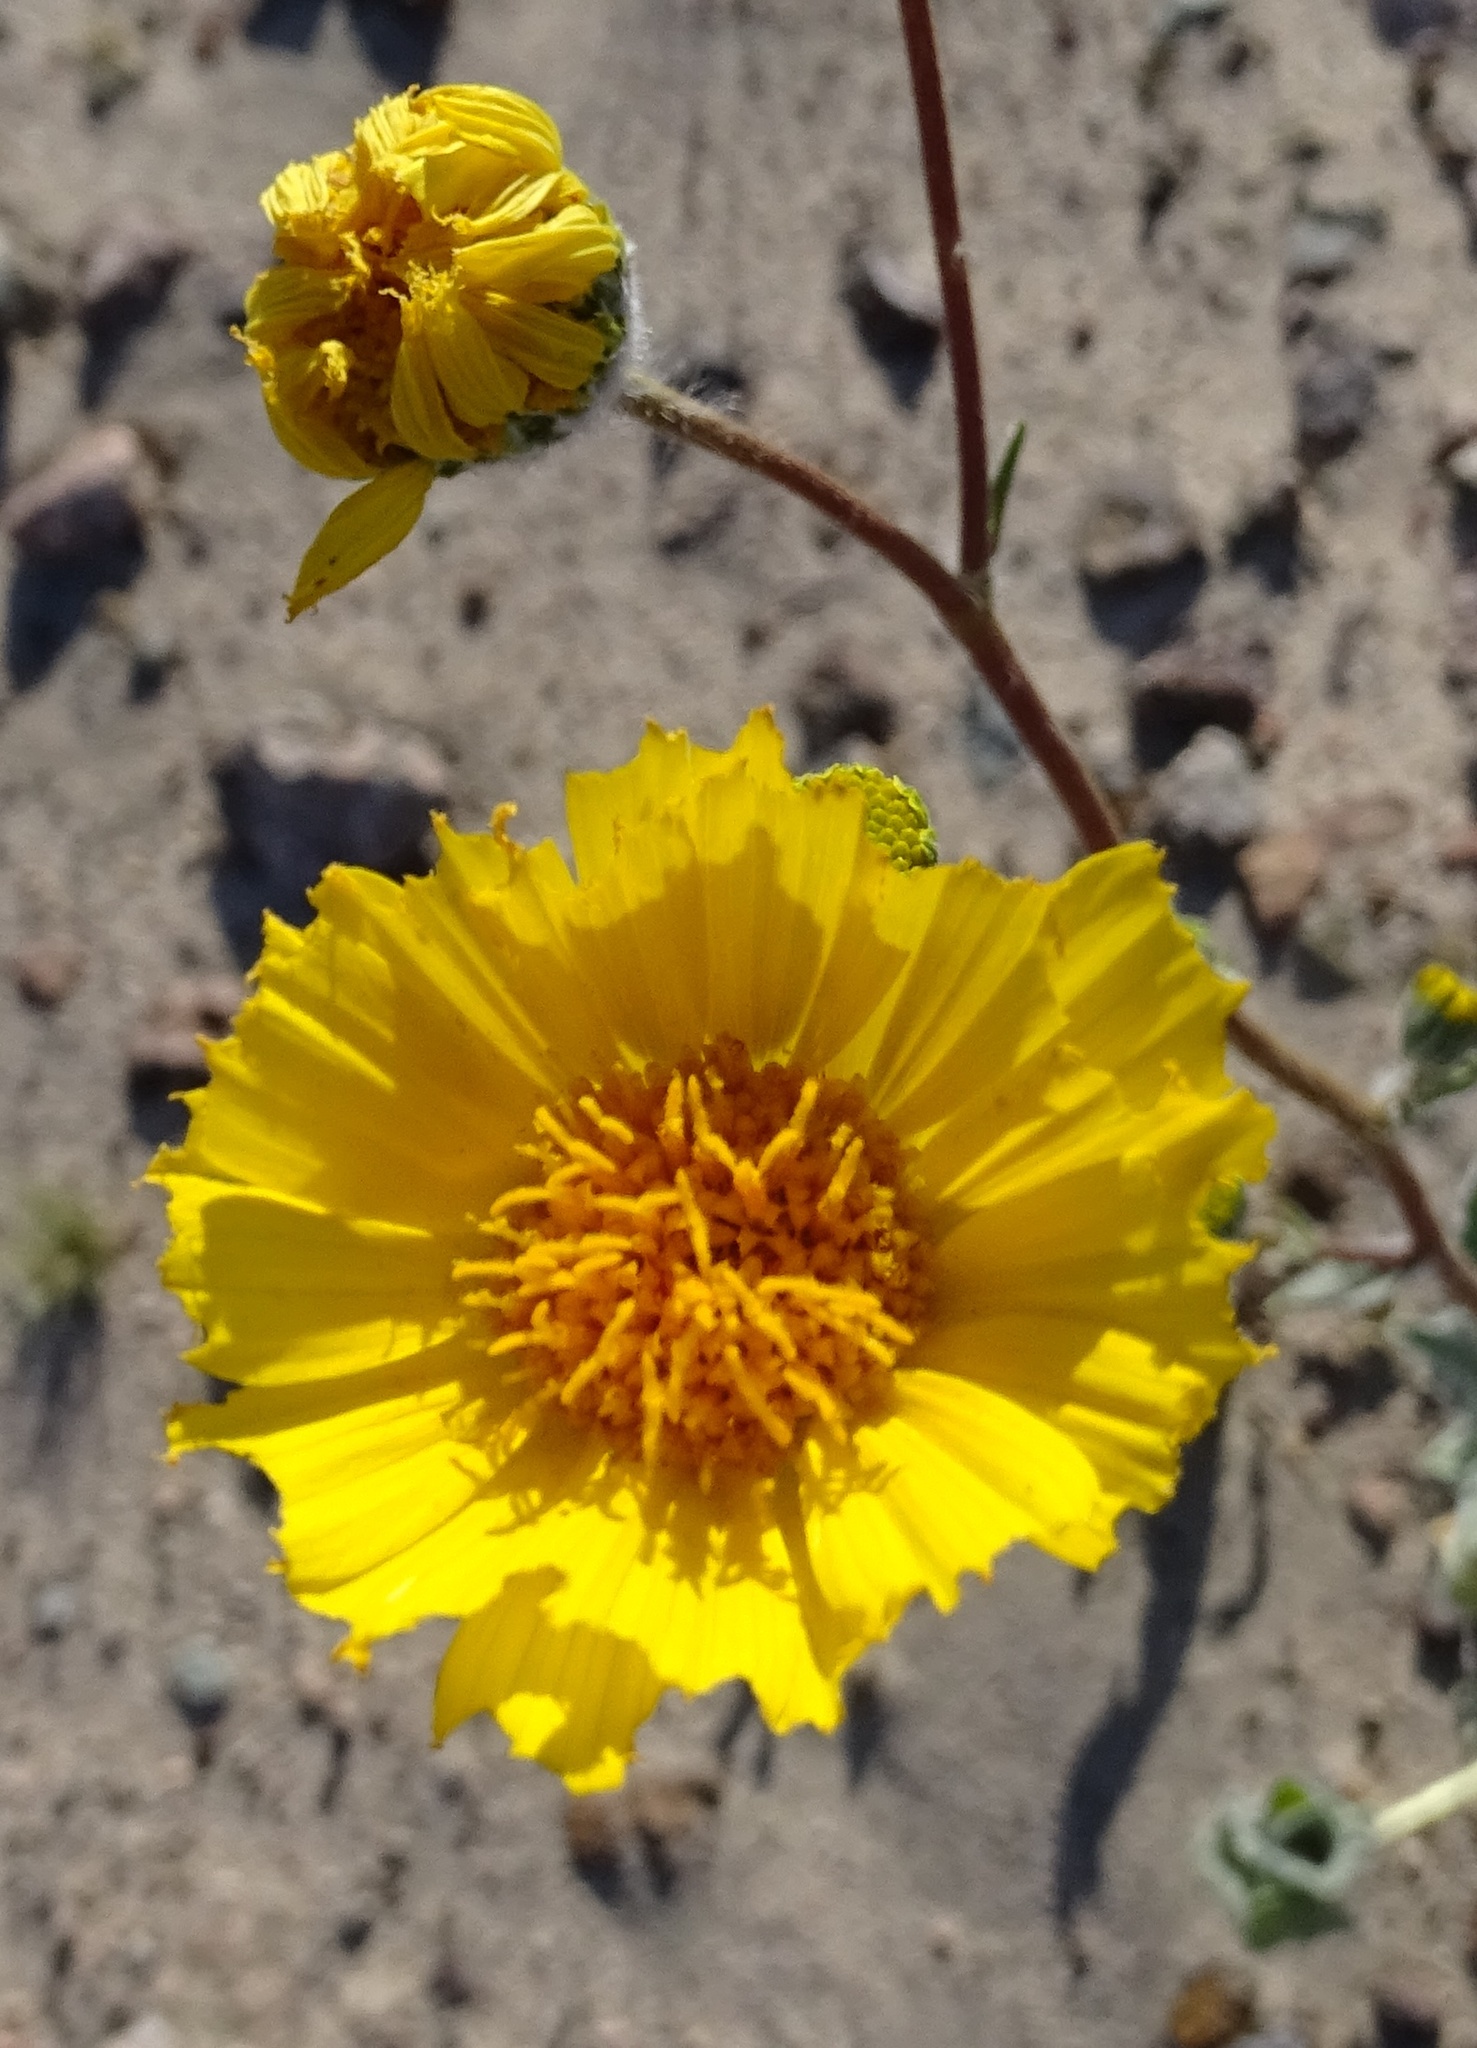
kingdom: Plantae
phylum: Tracheophyta
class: Magnoliopsida
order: Asterales
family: Asteraceae
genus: Geraea
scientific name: Geraea canescens
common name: Desert-gold
